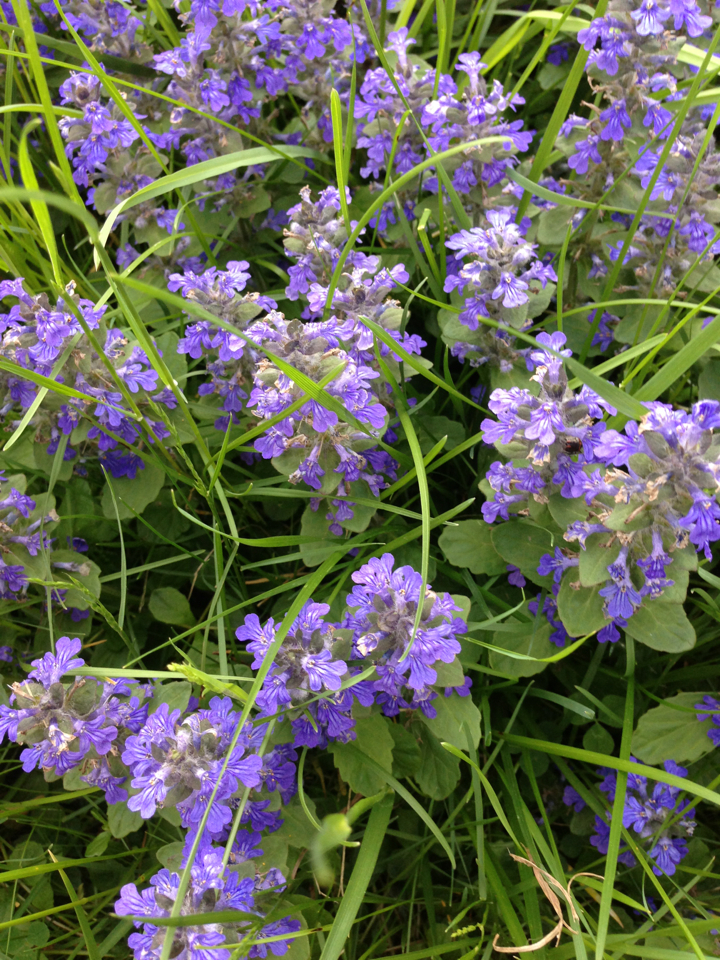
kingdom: Plantae
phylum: Tracheophyta
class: Magnoliopsida
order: Lamiales
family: Lamiaceae
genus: Ajuga
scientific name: Ajuga reptans
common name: Bugle
